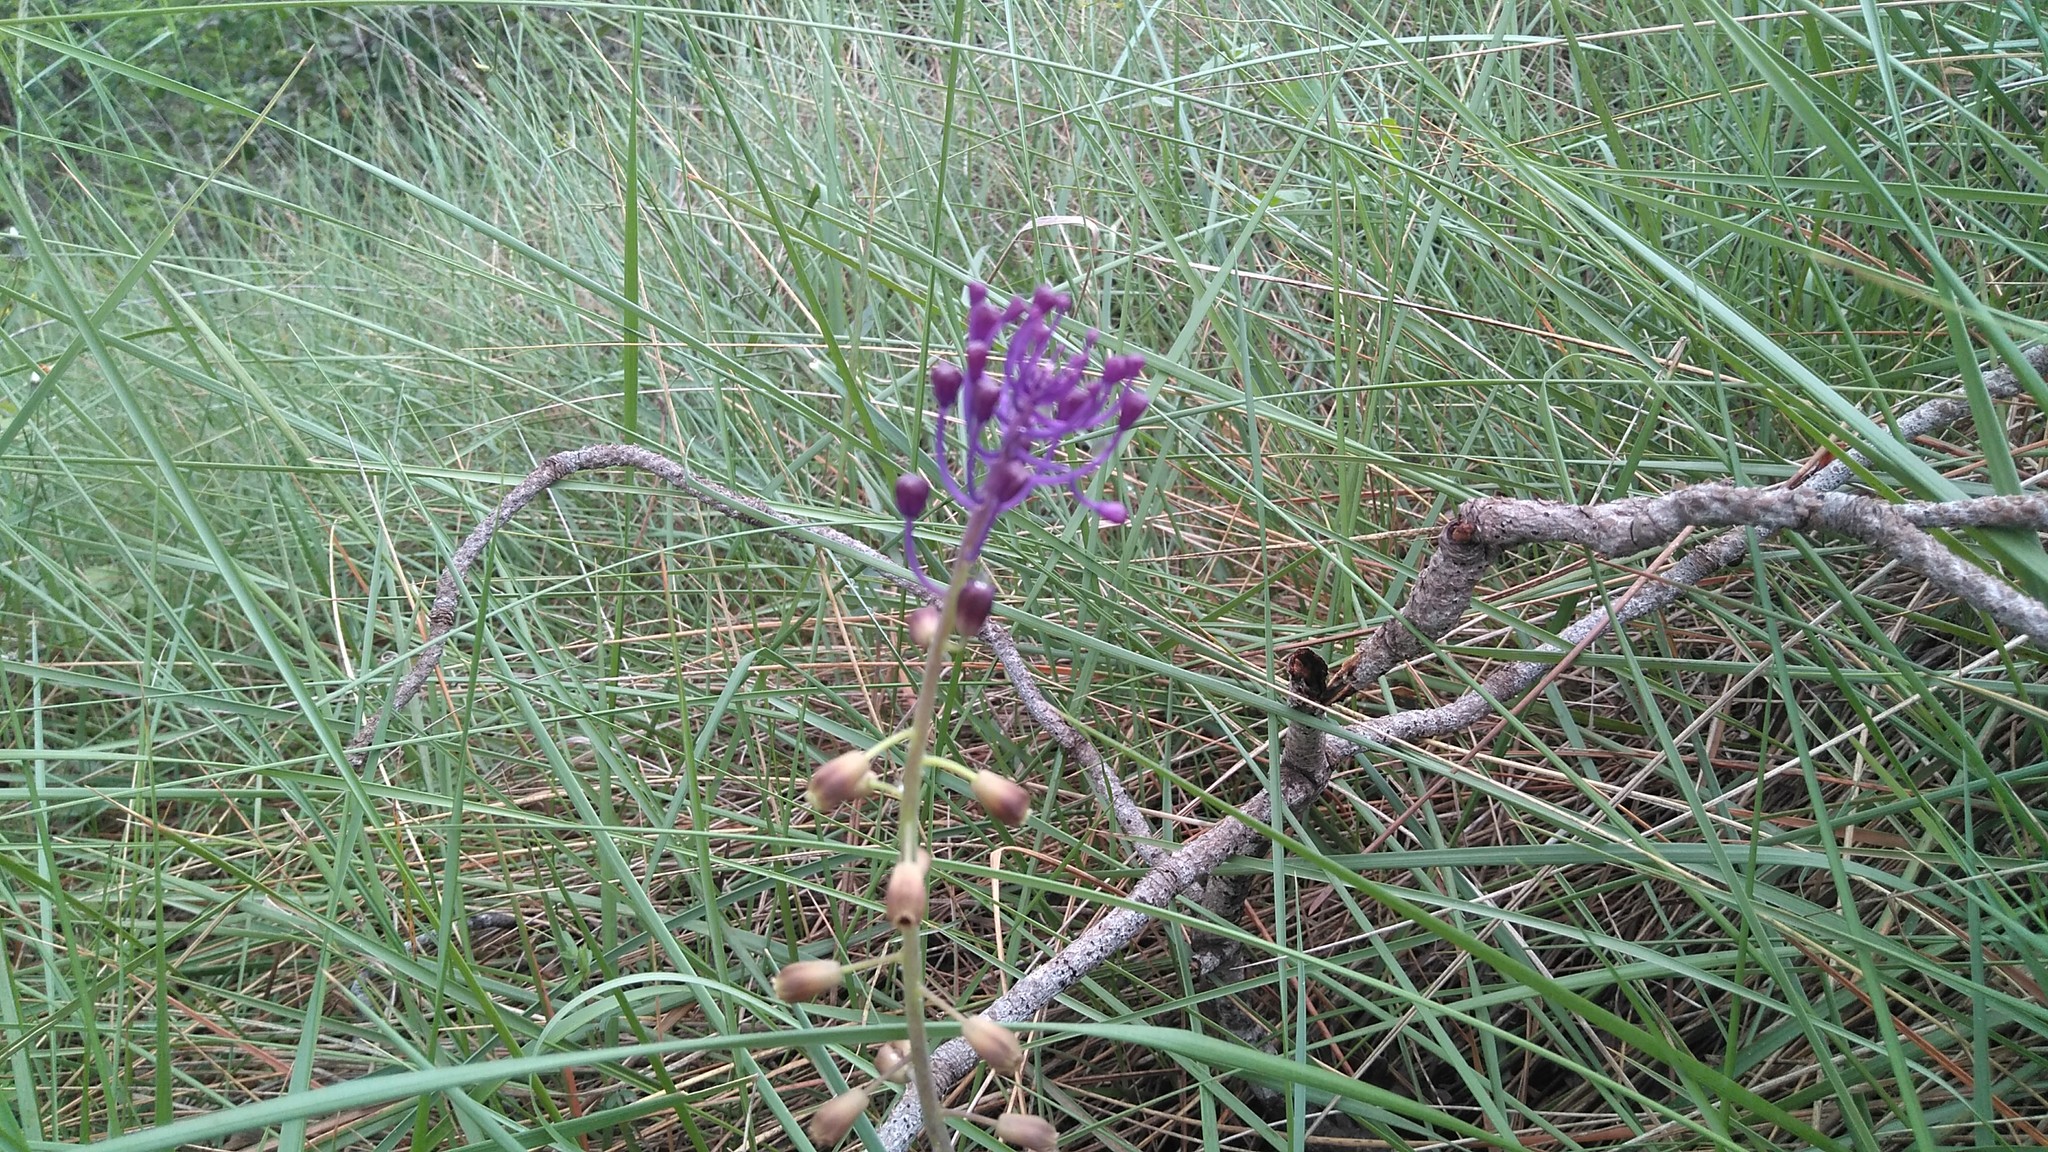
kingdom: Plantae
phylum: Tracheophyta
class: Liliopsida
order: Asparagales
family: Asparagaceae
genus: Muscari
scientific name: Muscari comosum
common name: Tassel hyacinth
